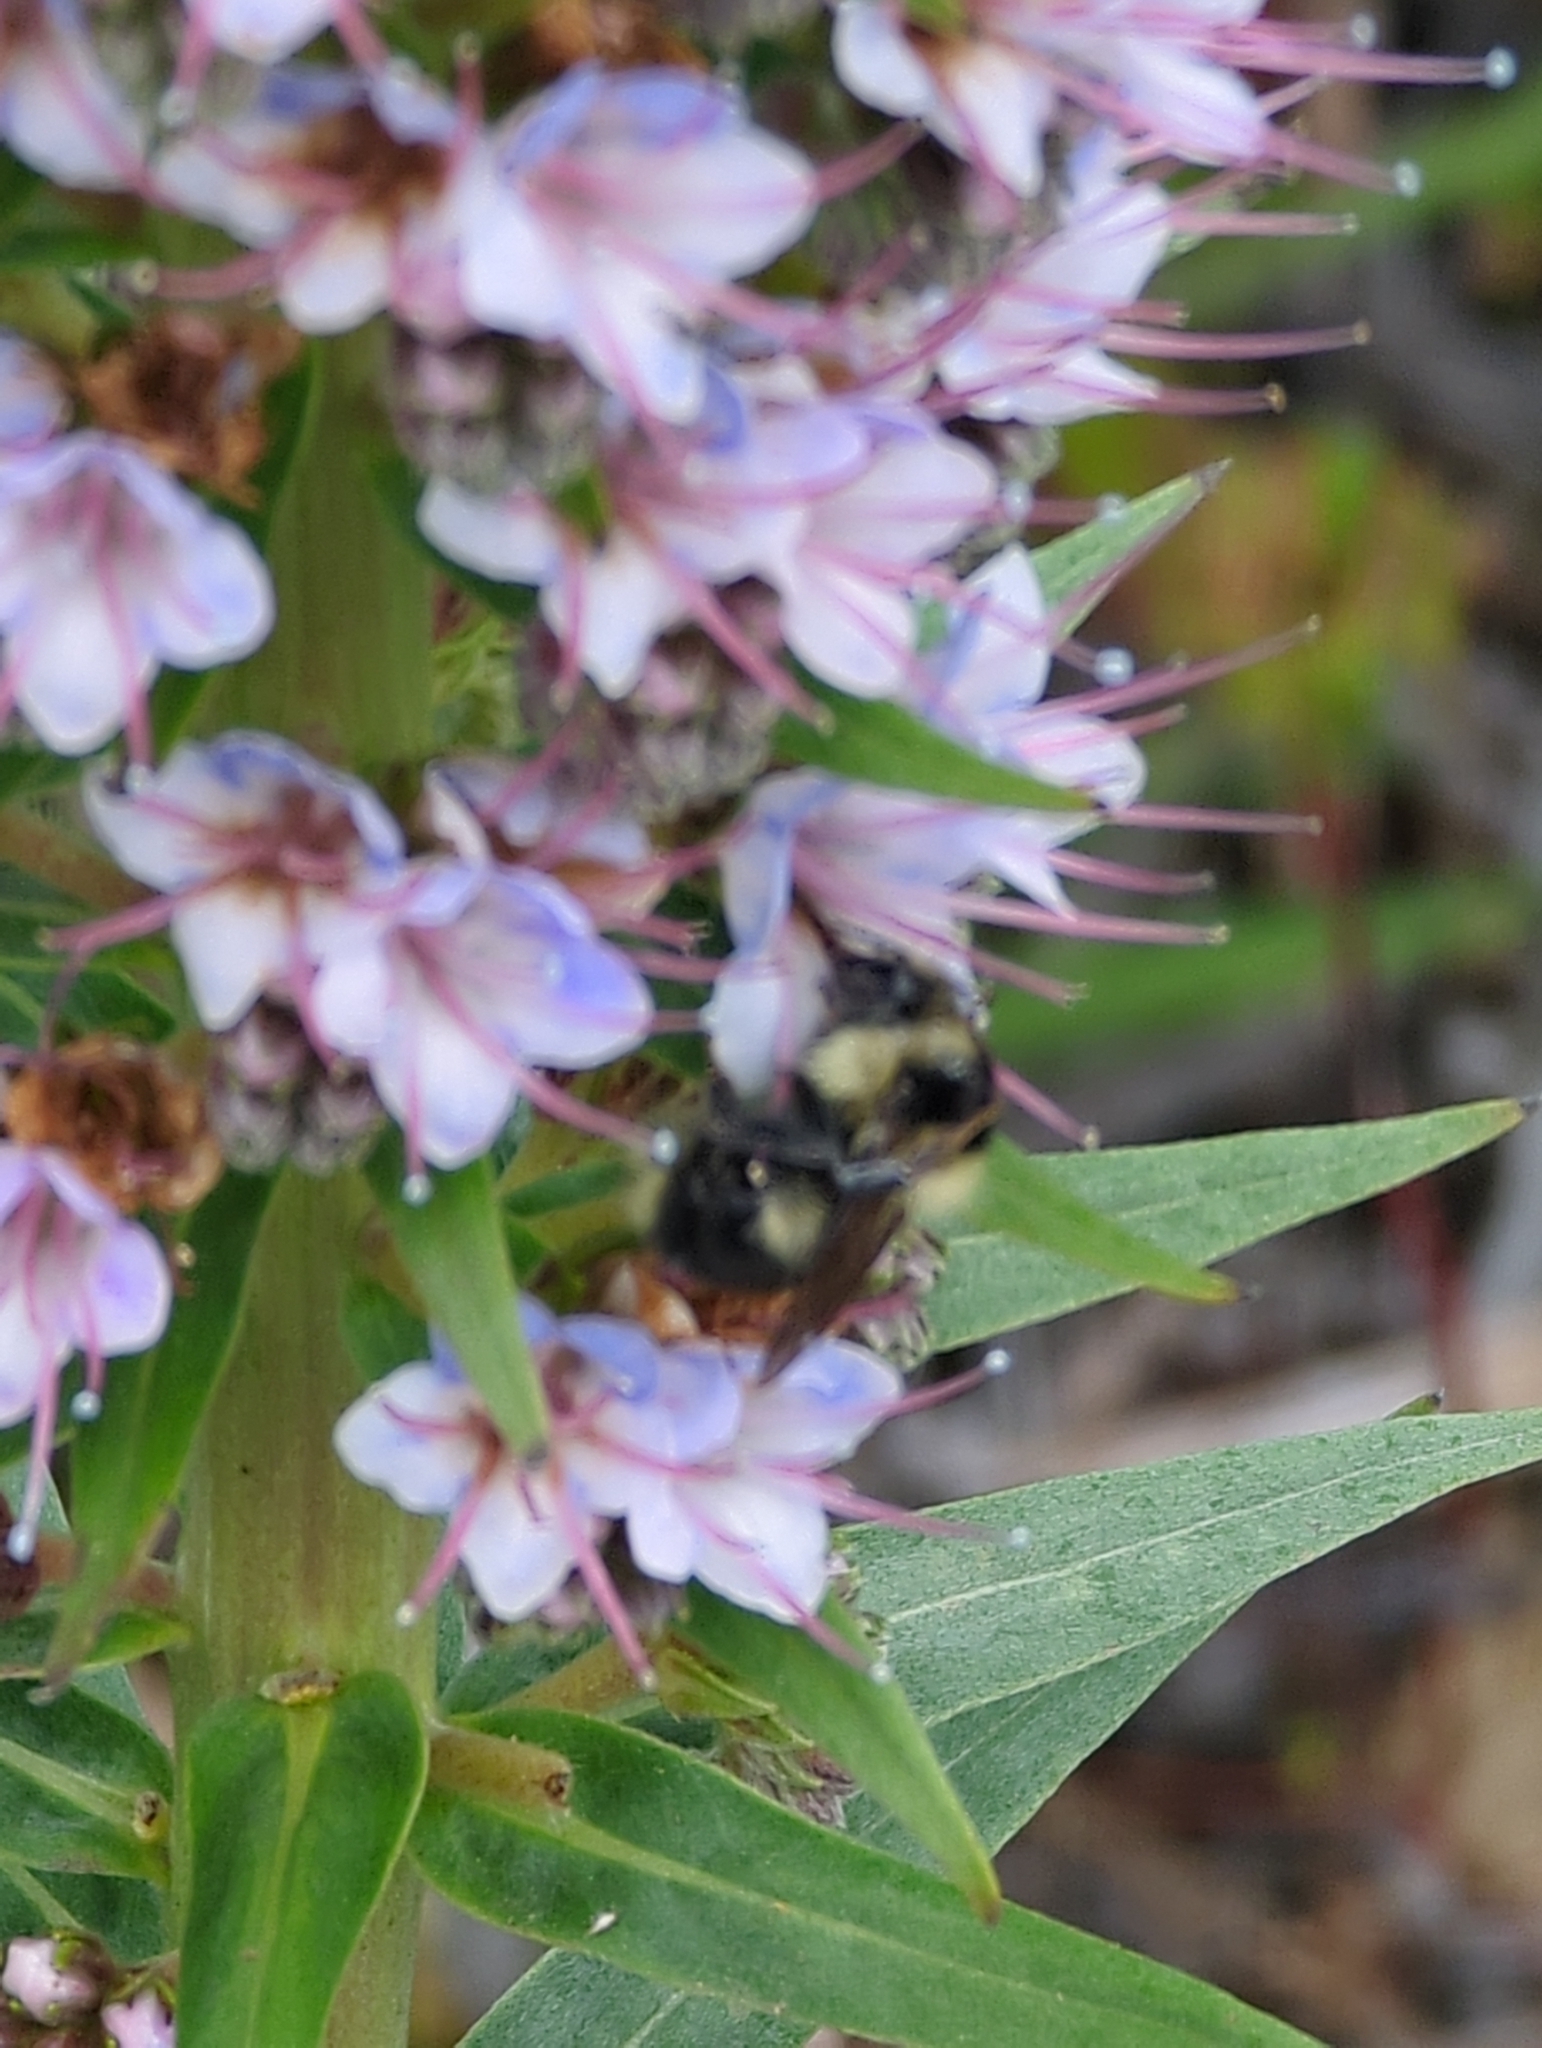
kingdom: Animalia
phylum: Arthropoda
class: Insecta
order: Hymenoptera
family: Apidae
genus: Bombus
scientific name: Bombus melanopygus
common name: Black tail bumble bee
